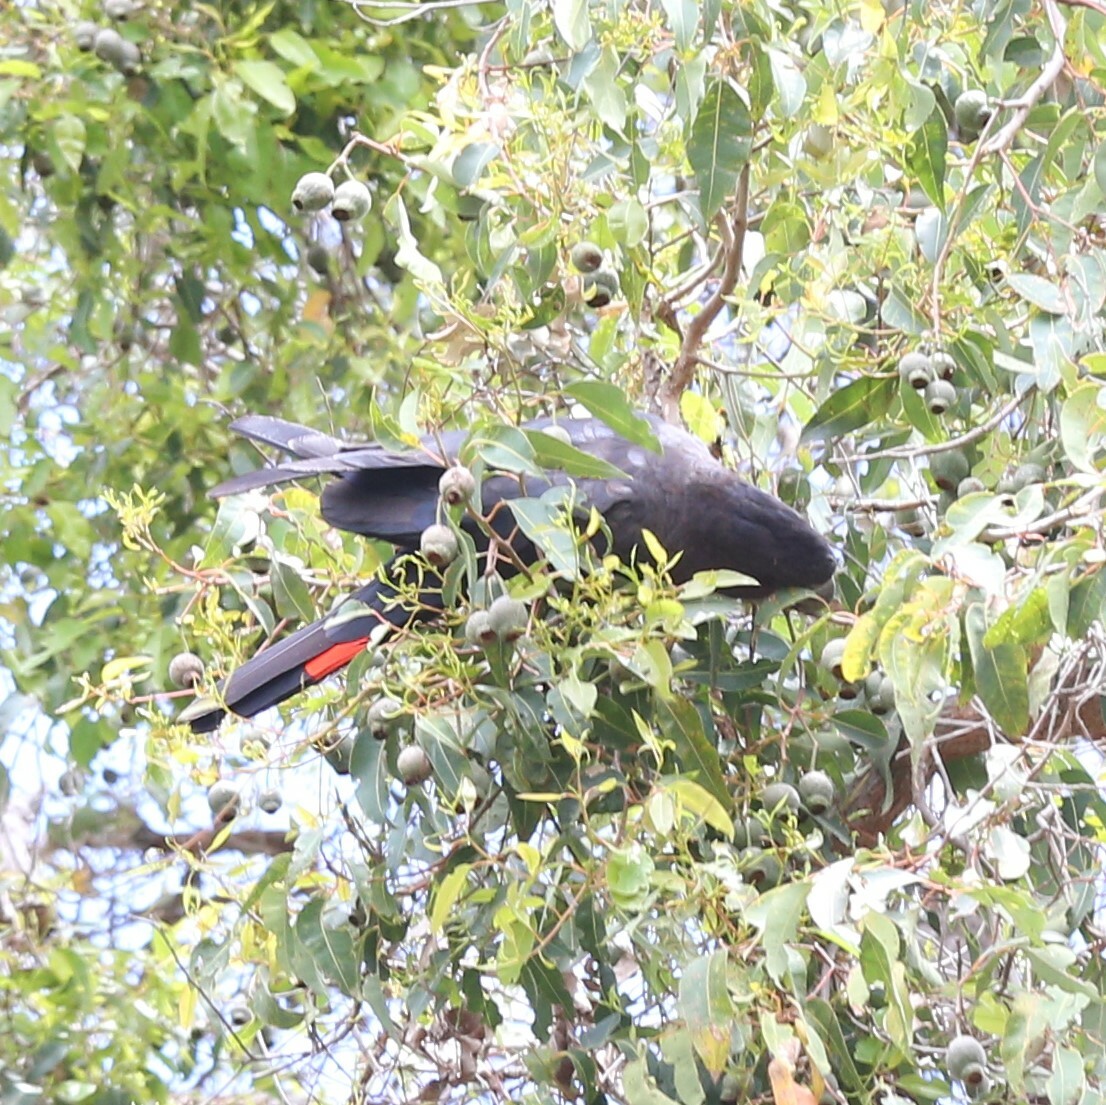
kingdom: Animalia
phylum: Chordata
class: Aves
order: Psittaciformes
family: Psittacidae
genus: Calyptorhynchus
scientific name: Calyptorhynchus banksii
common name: Red-tailed black cockatoo
